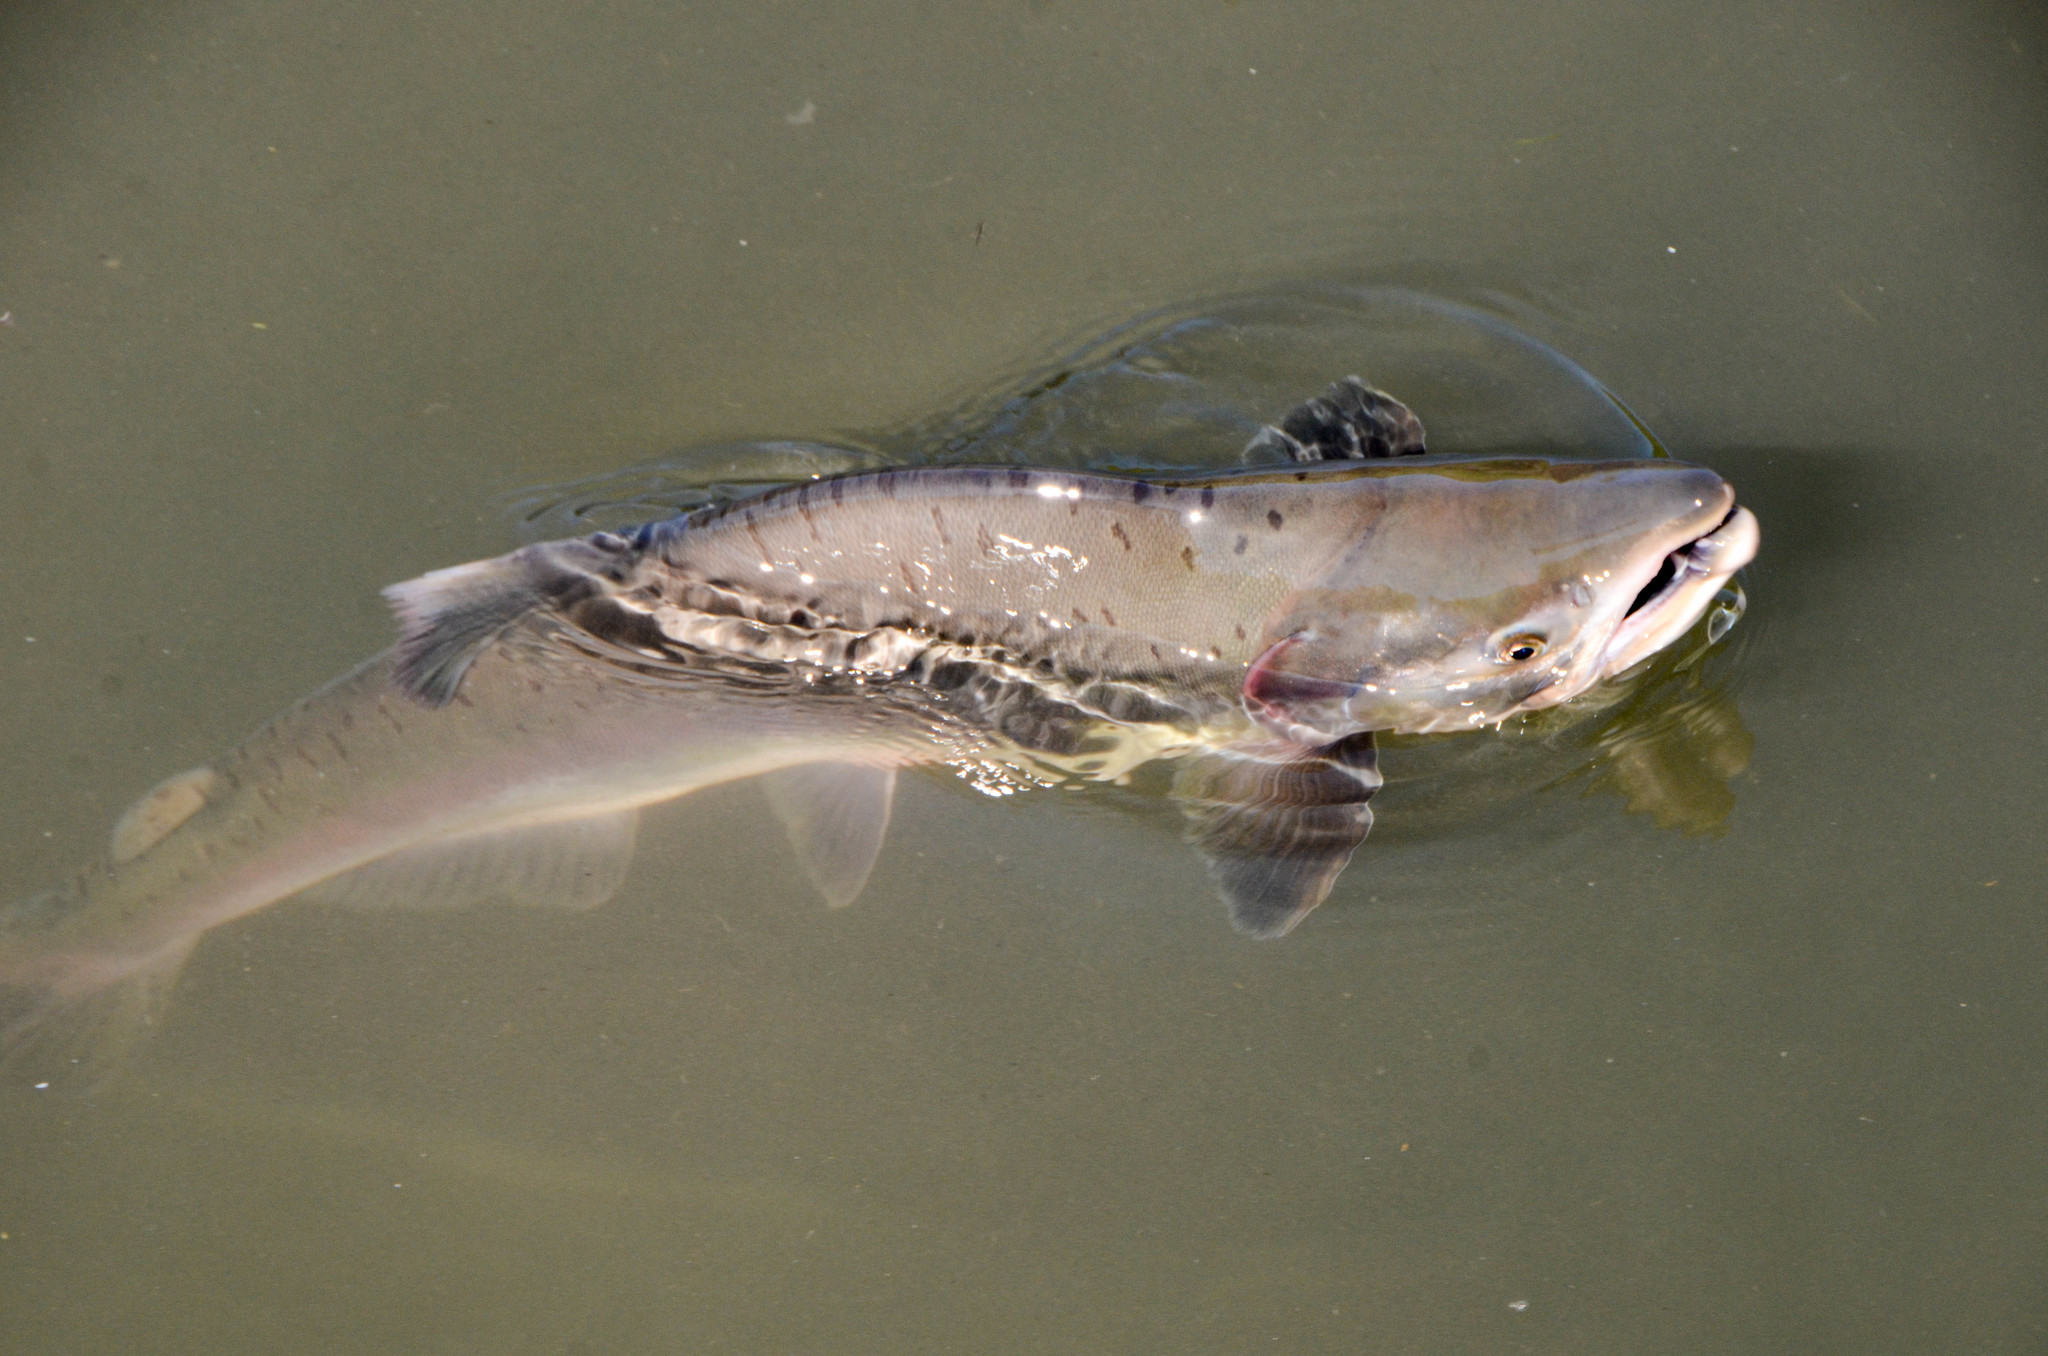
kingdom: Animalia
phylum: Chordata
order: Salmoniformes
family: Salmonidae
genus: Oncorhynchus
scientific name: Oncorhynchus gorbuscha
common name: Humpback salmon
